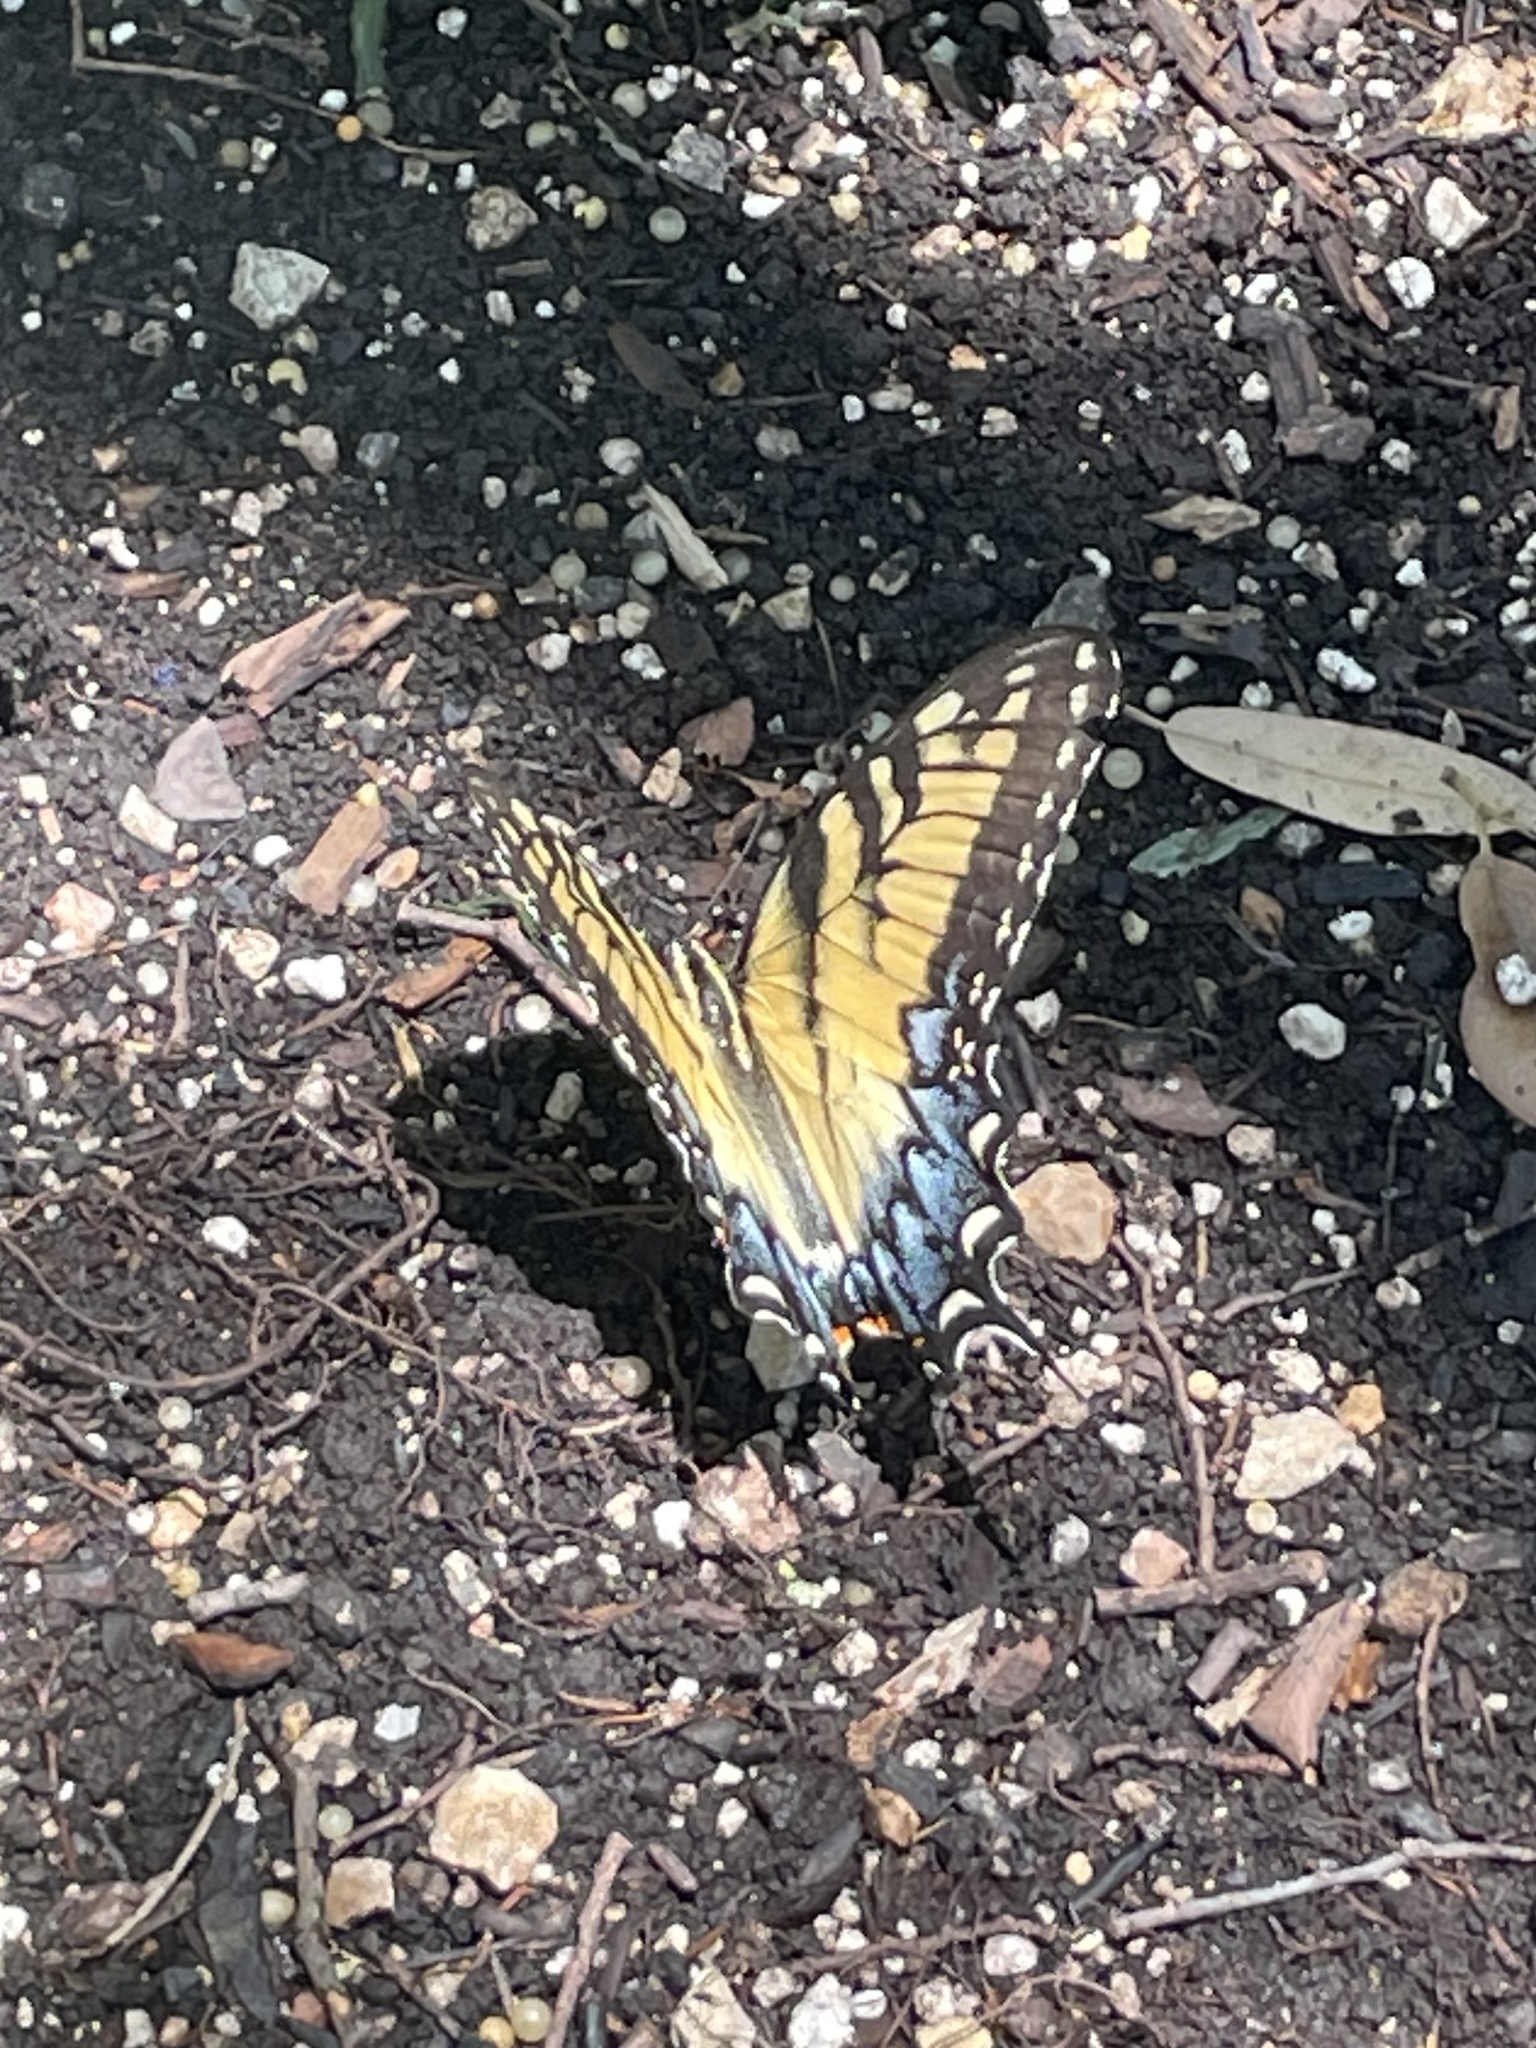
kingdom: Animalia
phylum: Arthropoda
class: Insecta
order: Lepidoptera
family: Papilionidae
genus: Papilio
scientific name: Papilio glaucus
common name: Tiger swallowtail
